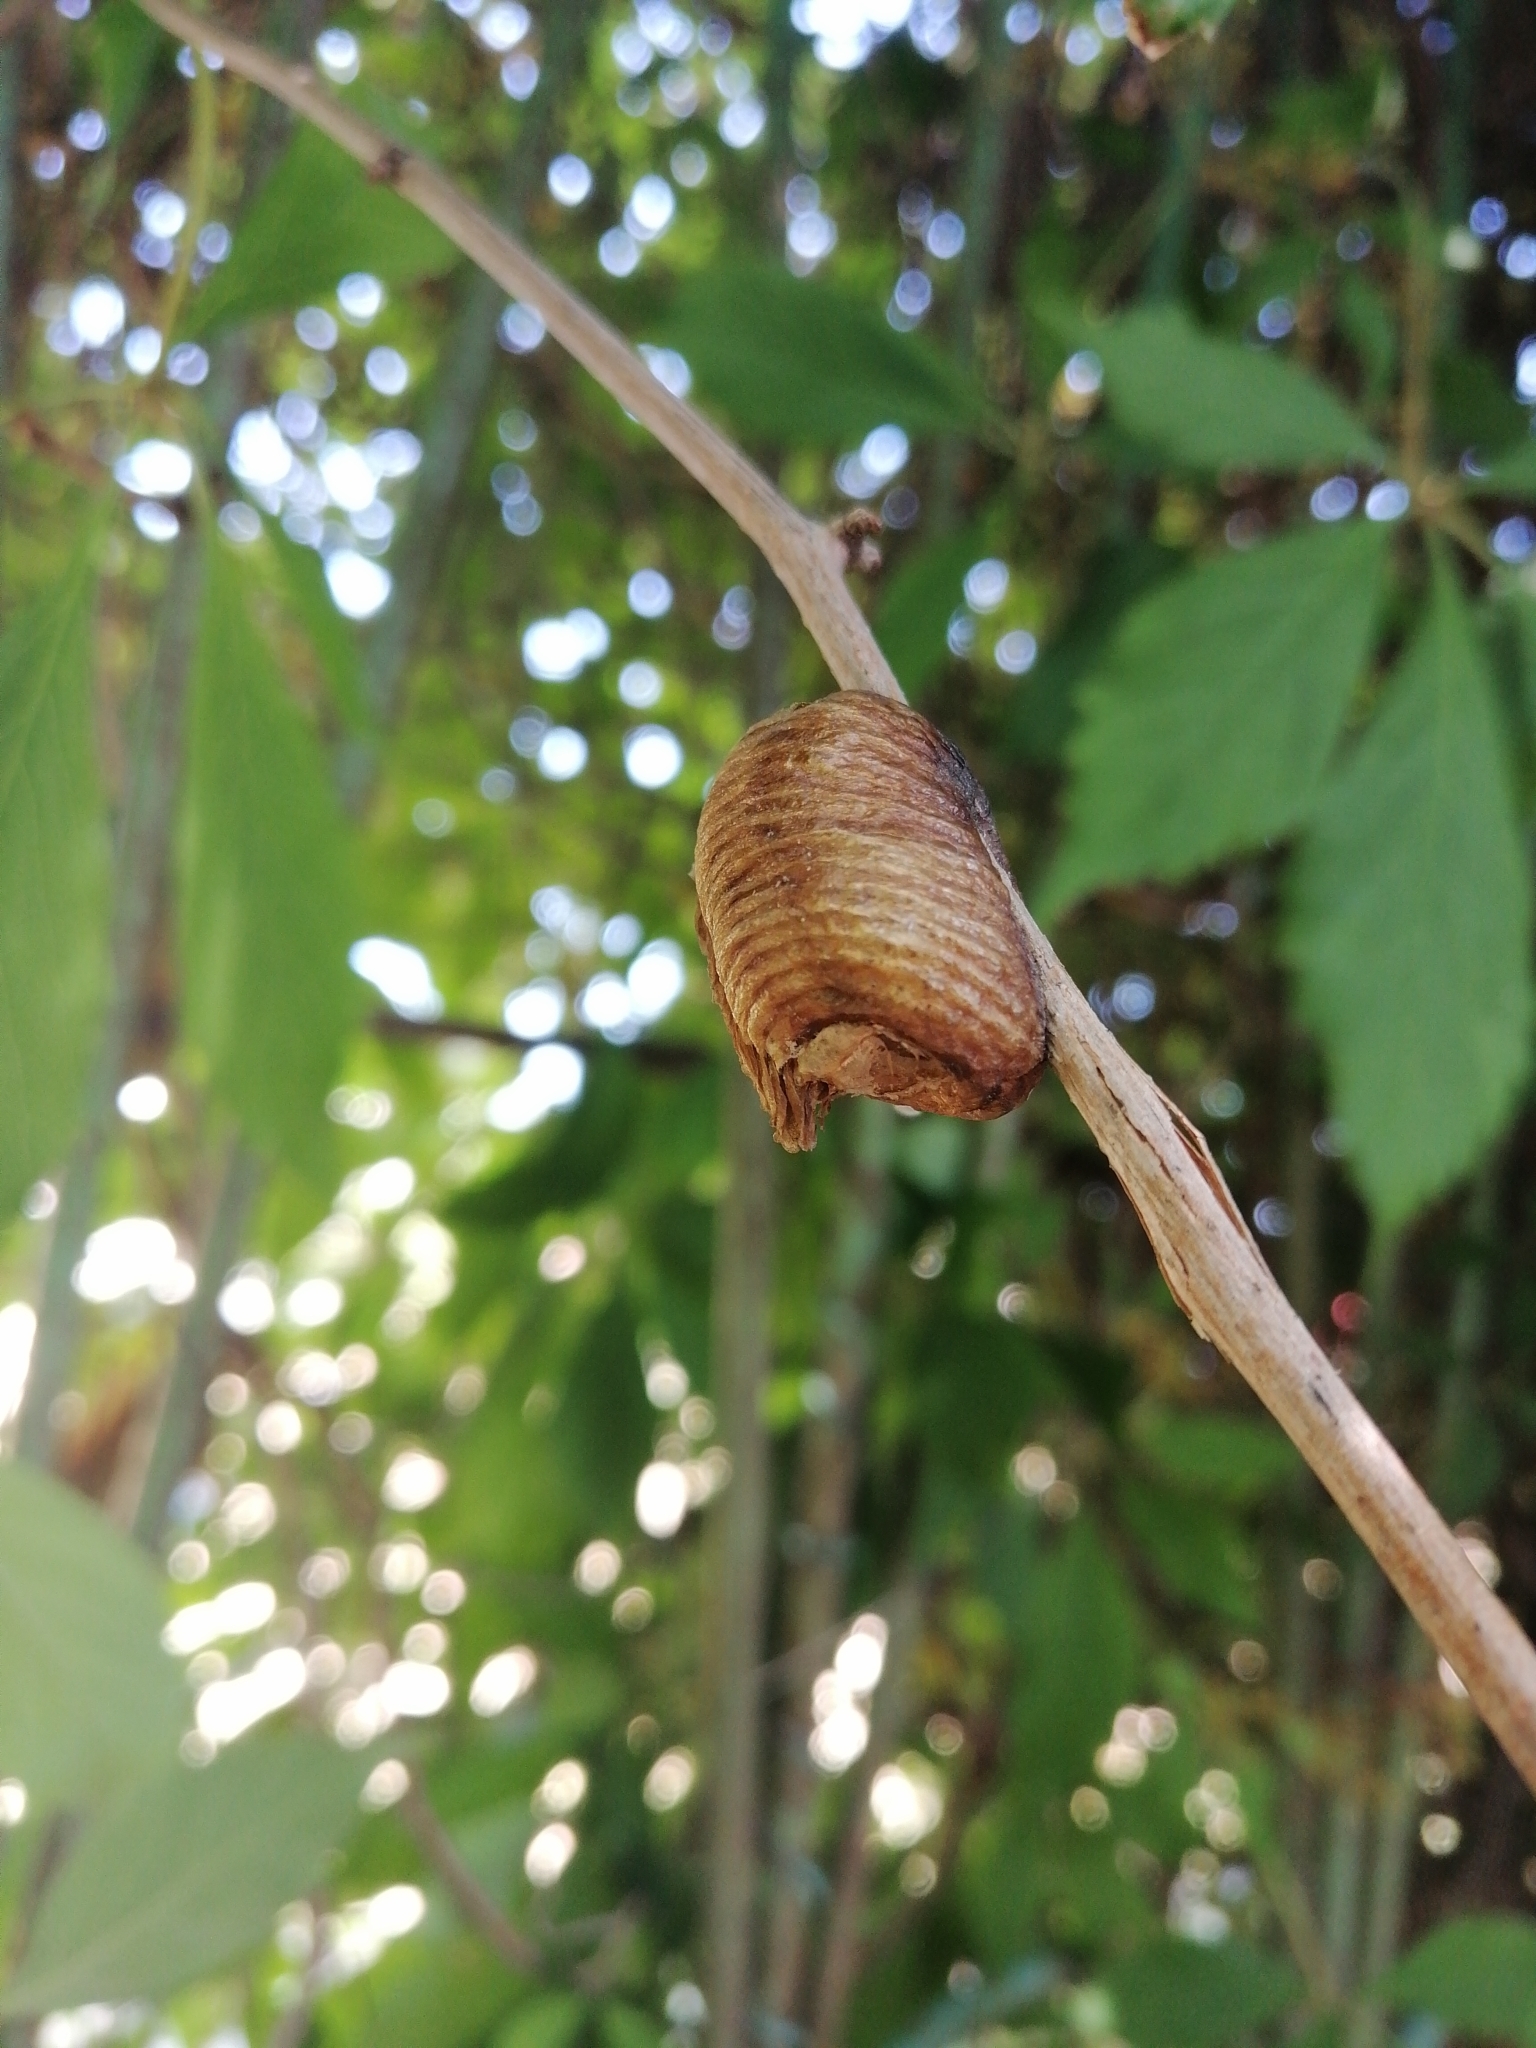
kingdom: Animalia
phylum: Arthropoda
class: Insecta
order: Mantodea
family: Mantidae
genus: Hierodula
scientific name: Hierodula transcaucasica
